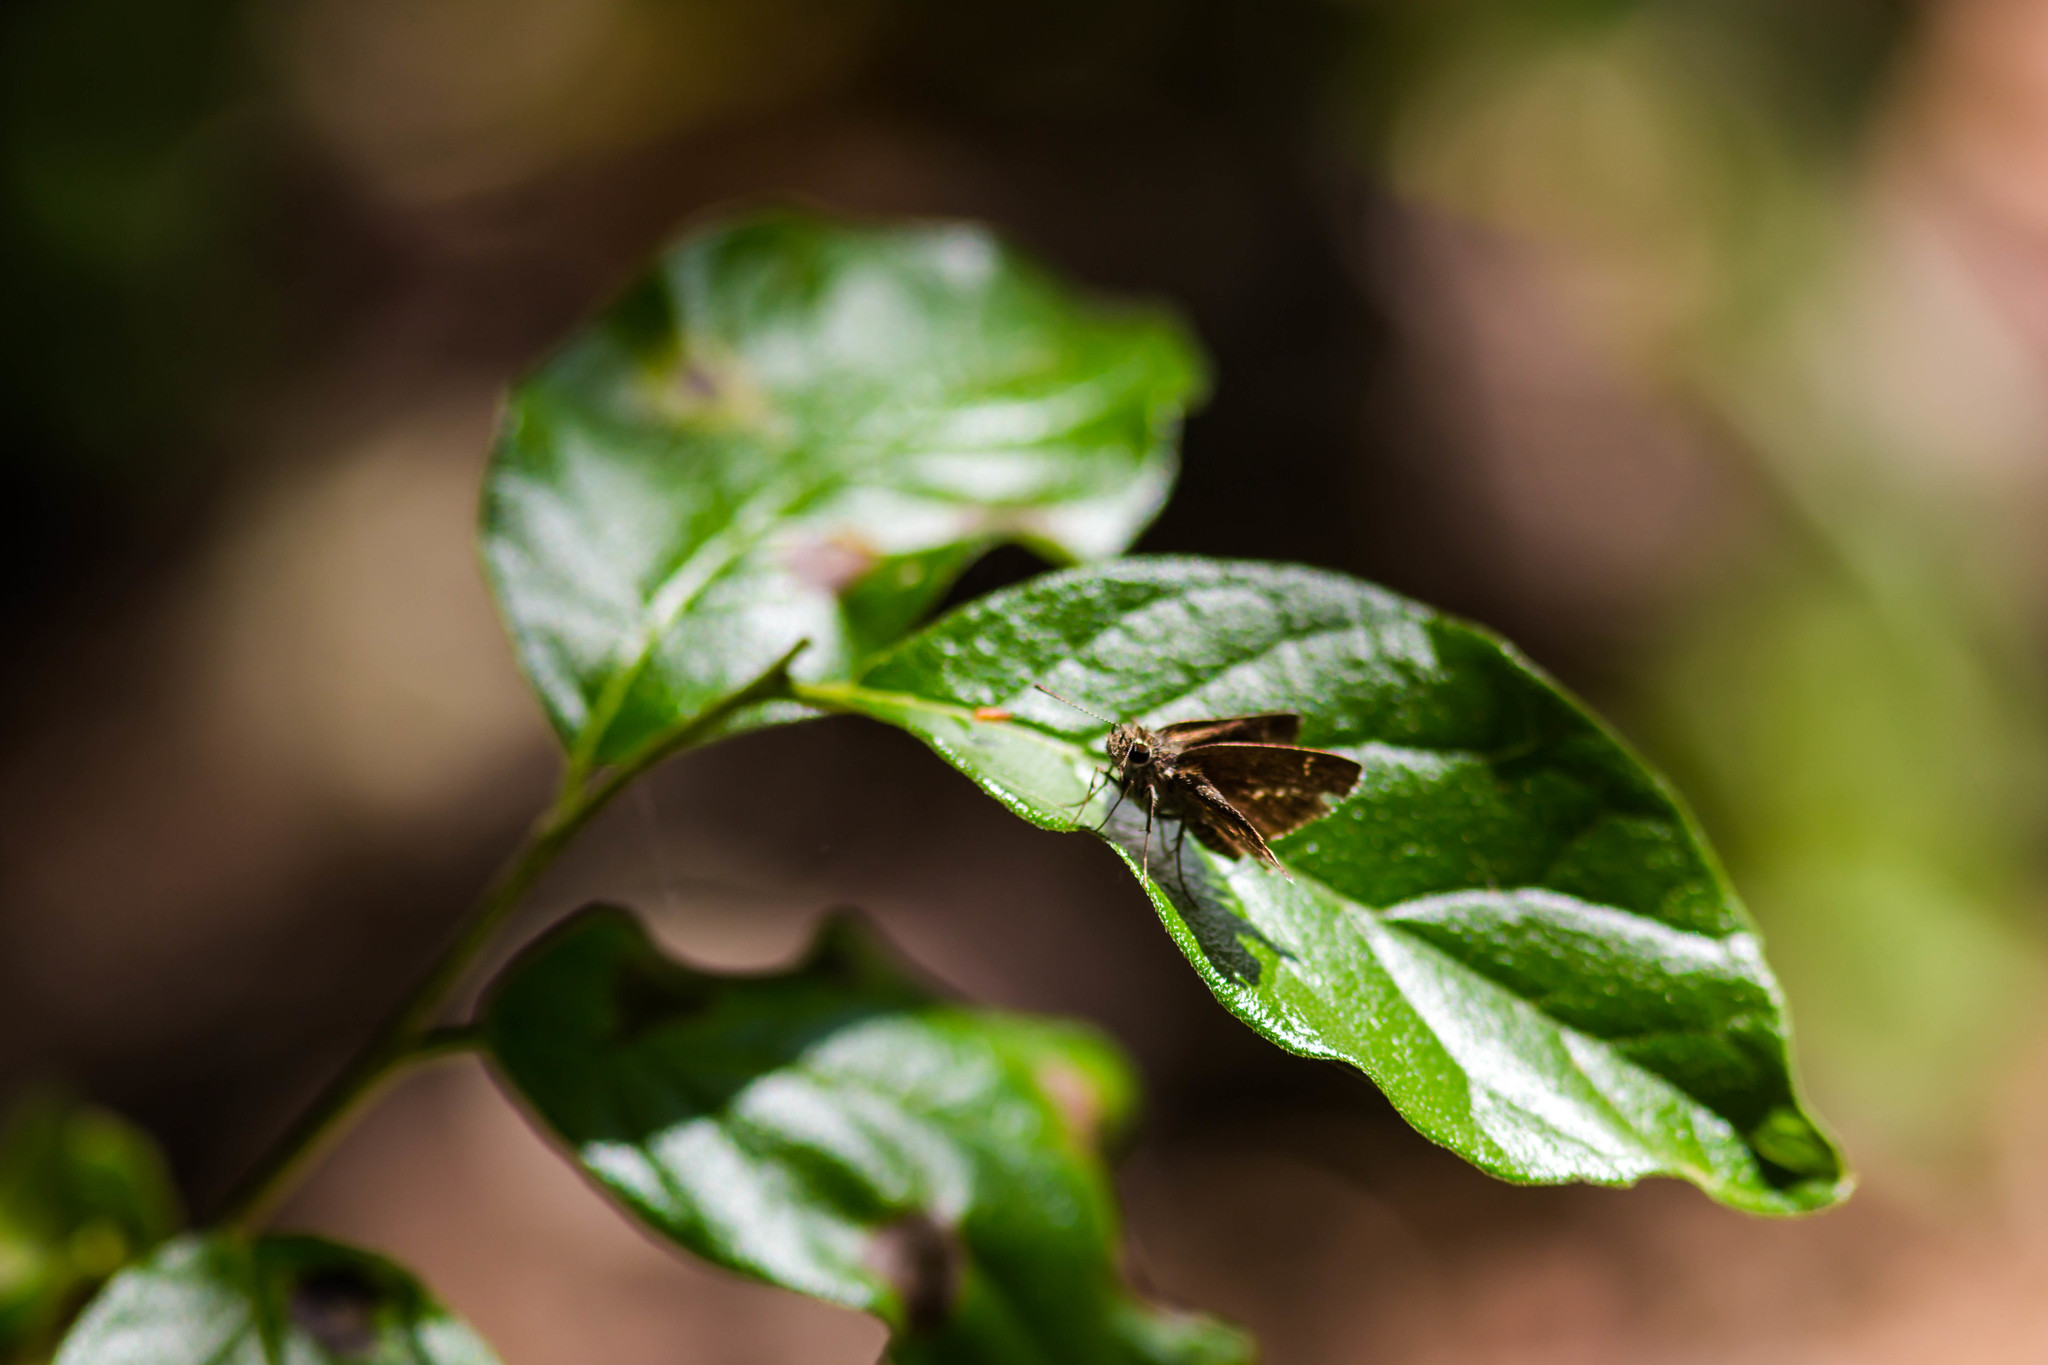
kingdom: Animalia
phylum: Arthropoda
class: Insecta
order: Lepidoptera
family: Hesperiidae
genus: Lerema
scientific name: Lerema accius
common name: Clouded skipper
